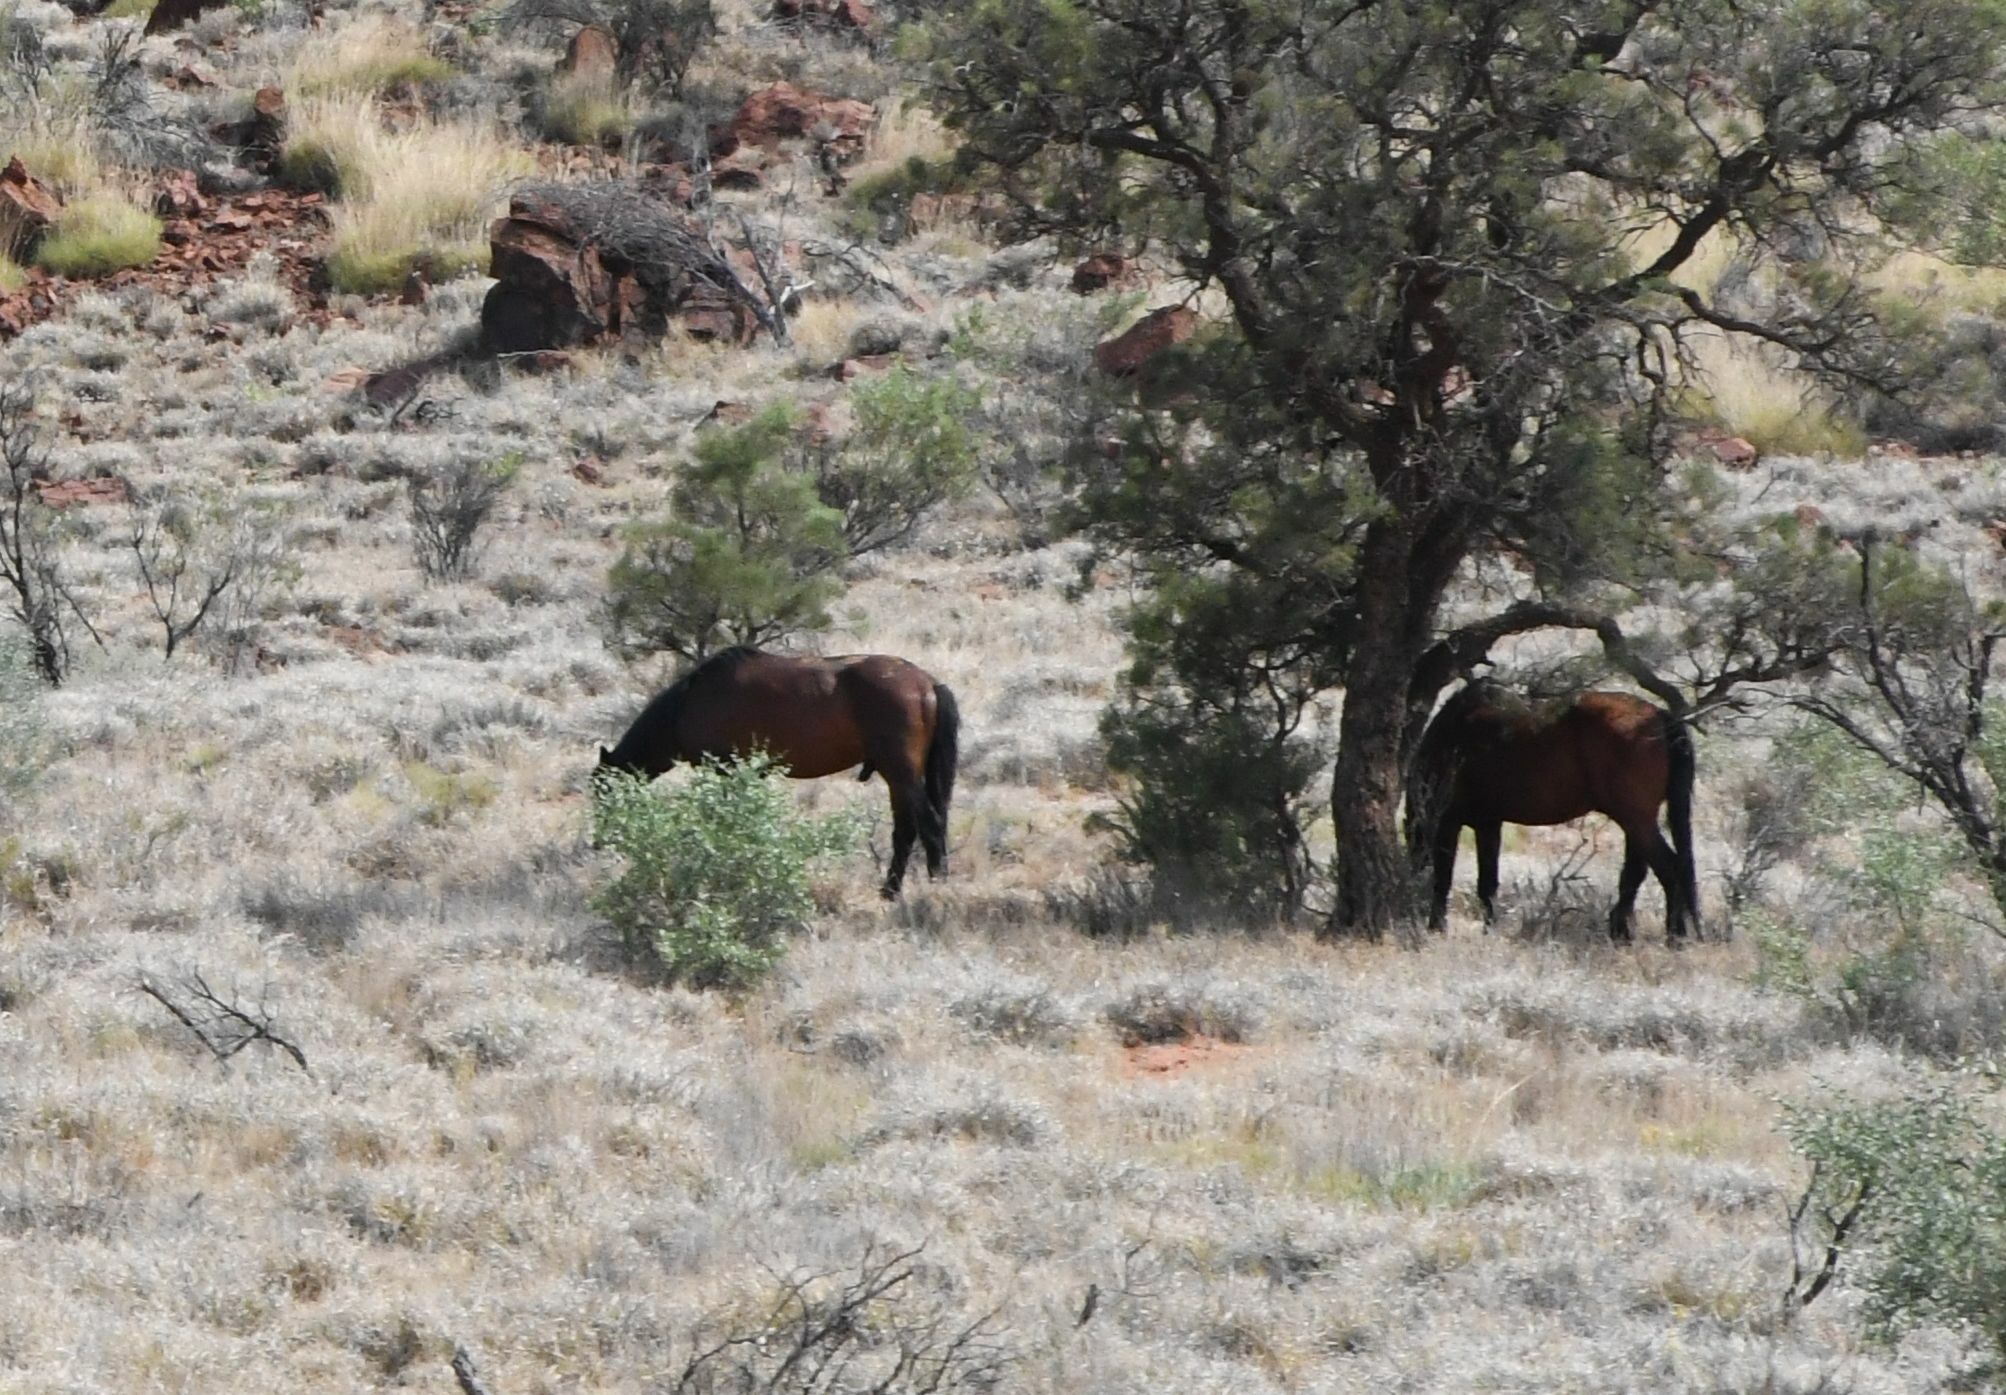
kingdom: Animalia
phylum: Chordata
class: Mammalia
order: Perissodactyla
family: Equidae
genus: Equus
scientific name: Equus caballus
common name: Horse
